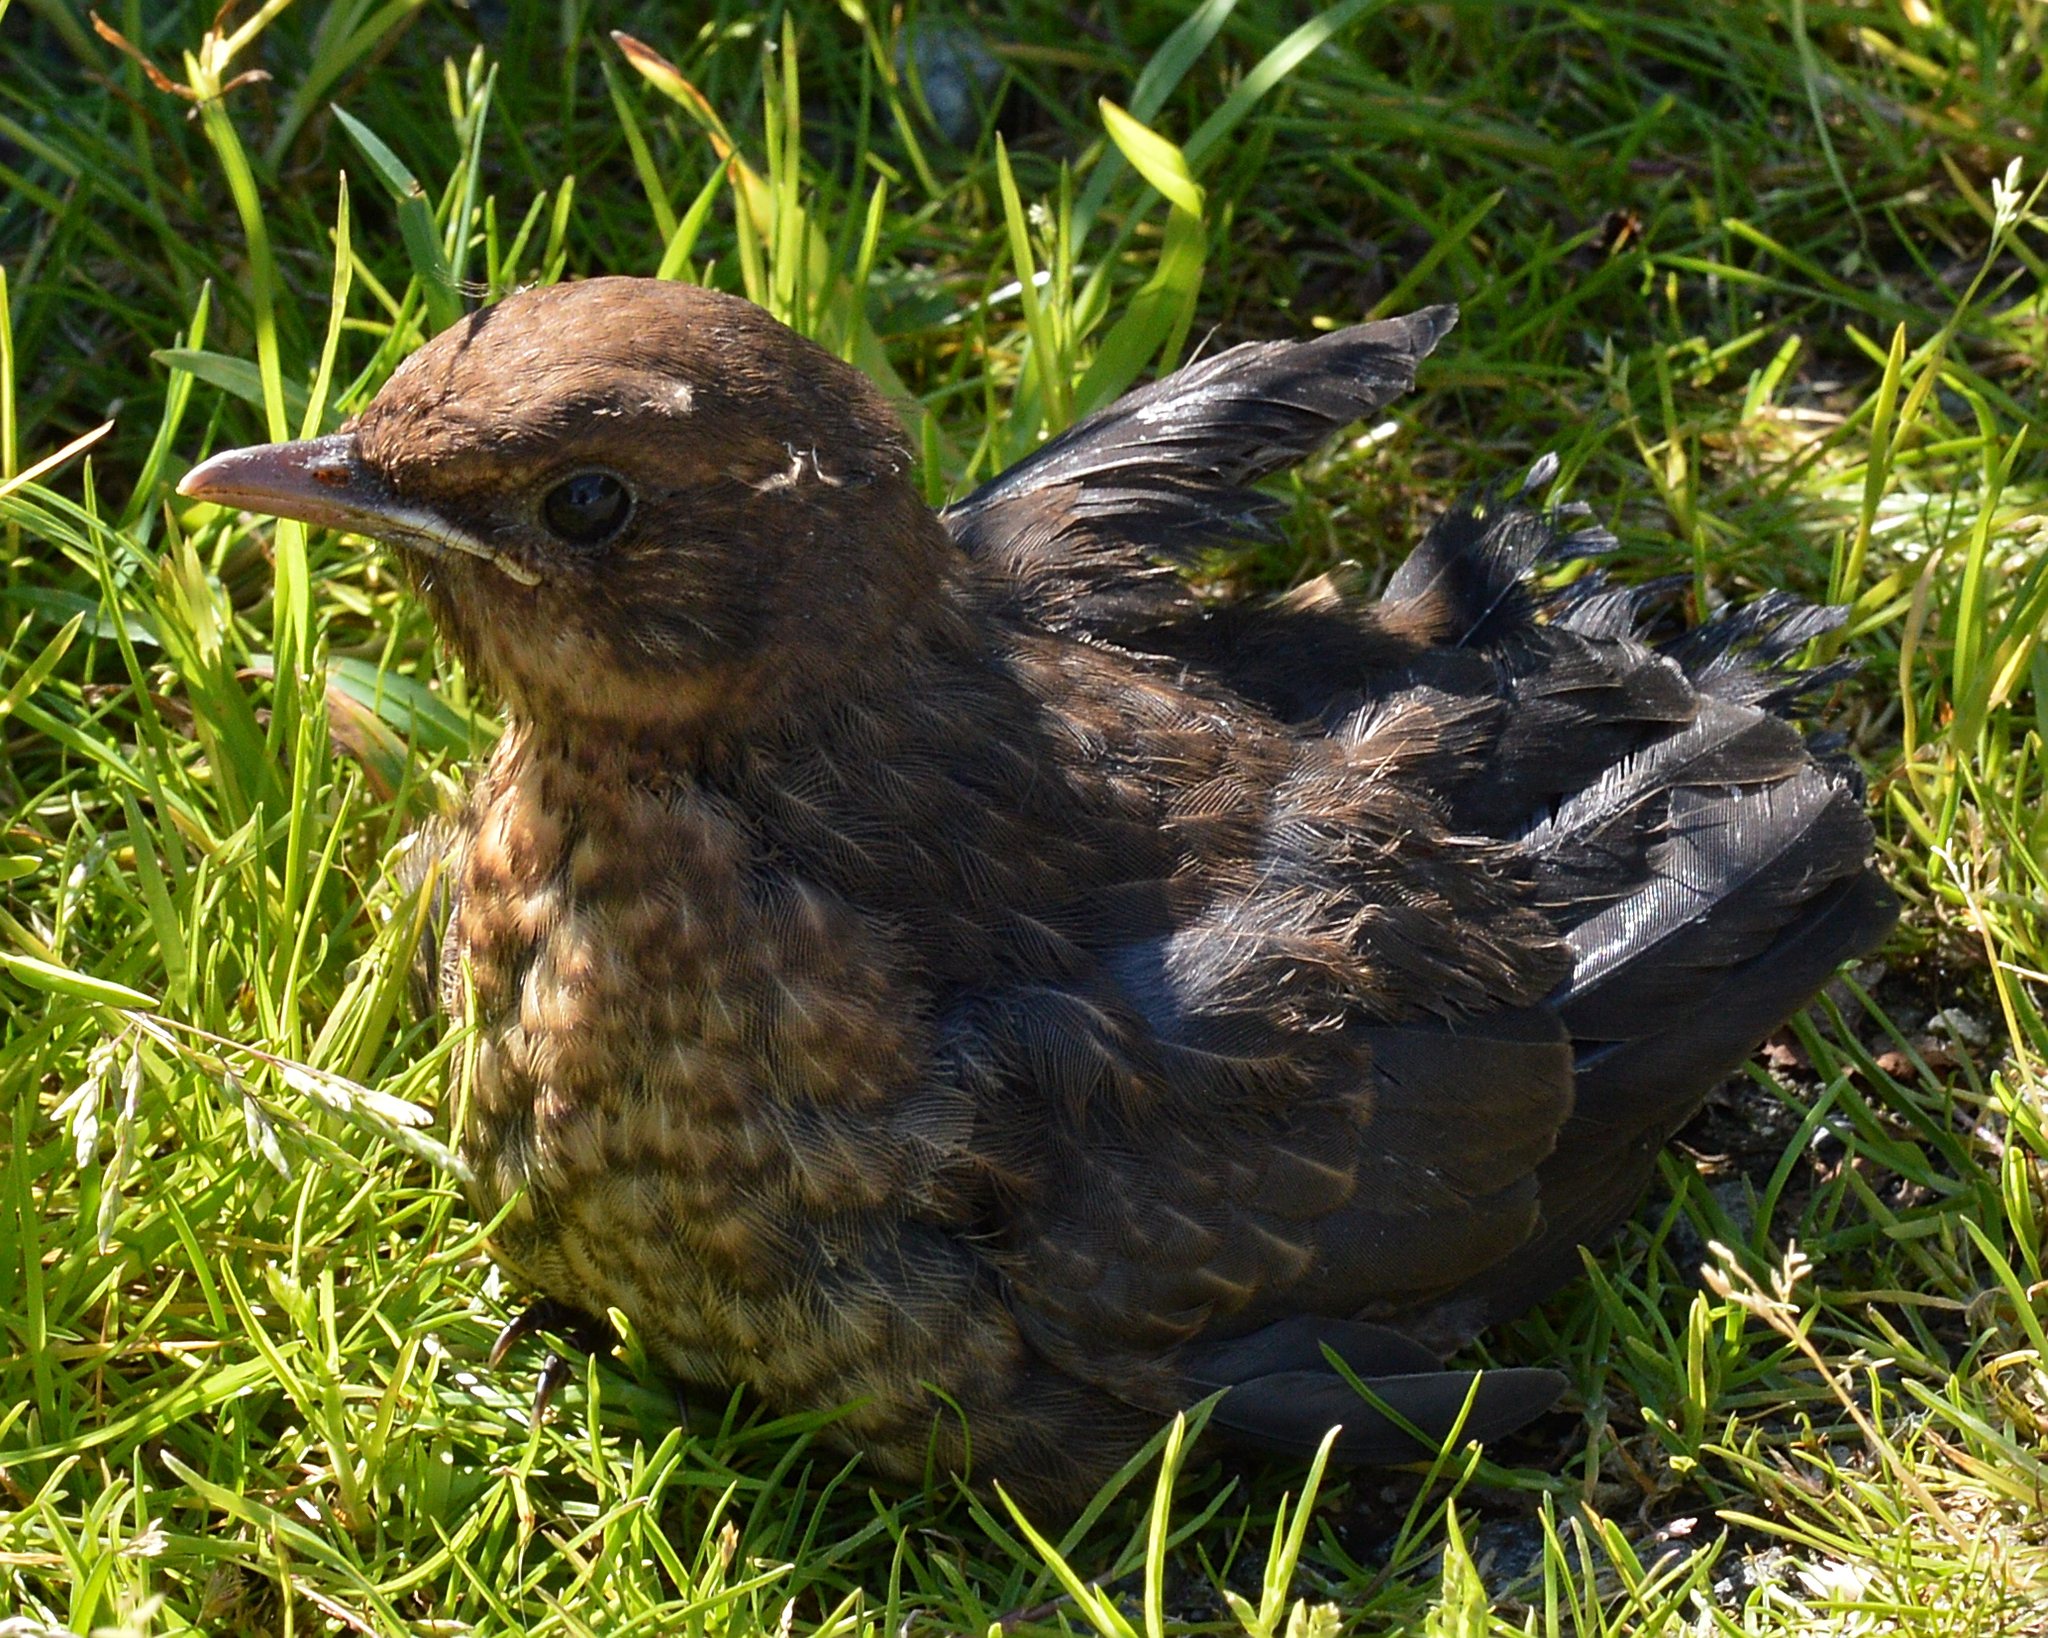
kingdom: Animalia
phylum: Chordata
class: Aves
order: Passeriformes
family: Turdidae
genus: Turdus
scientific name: Turdus merula
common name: Common blackbird
